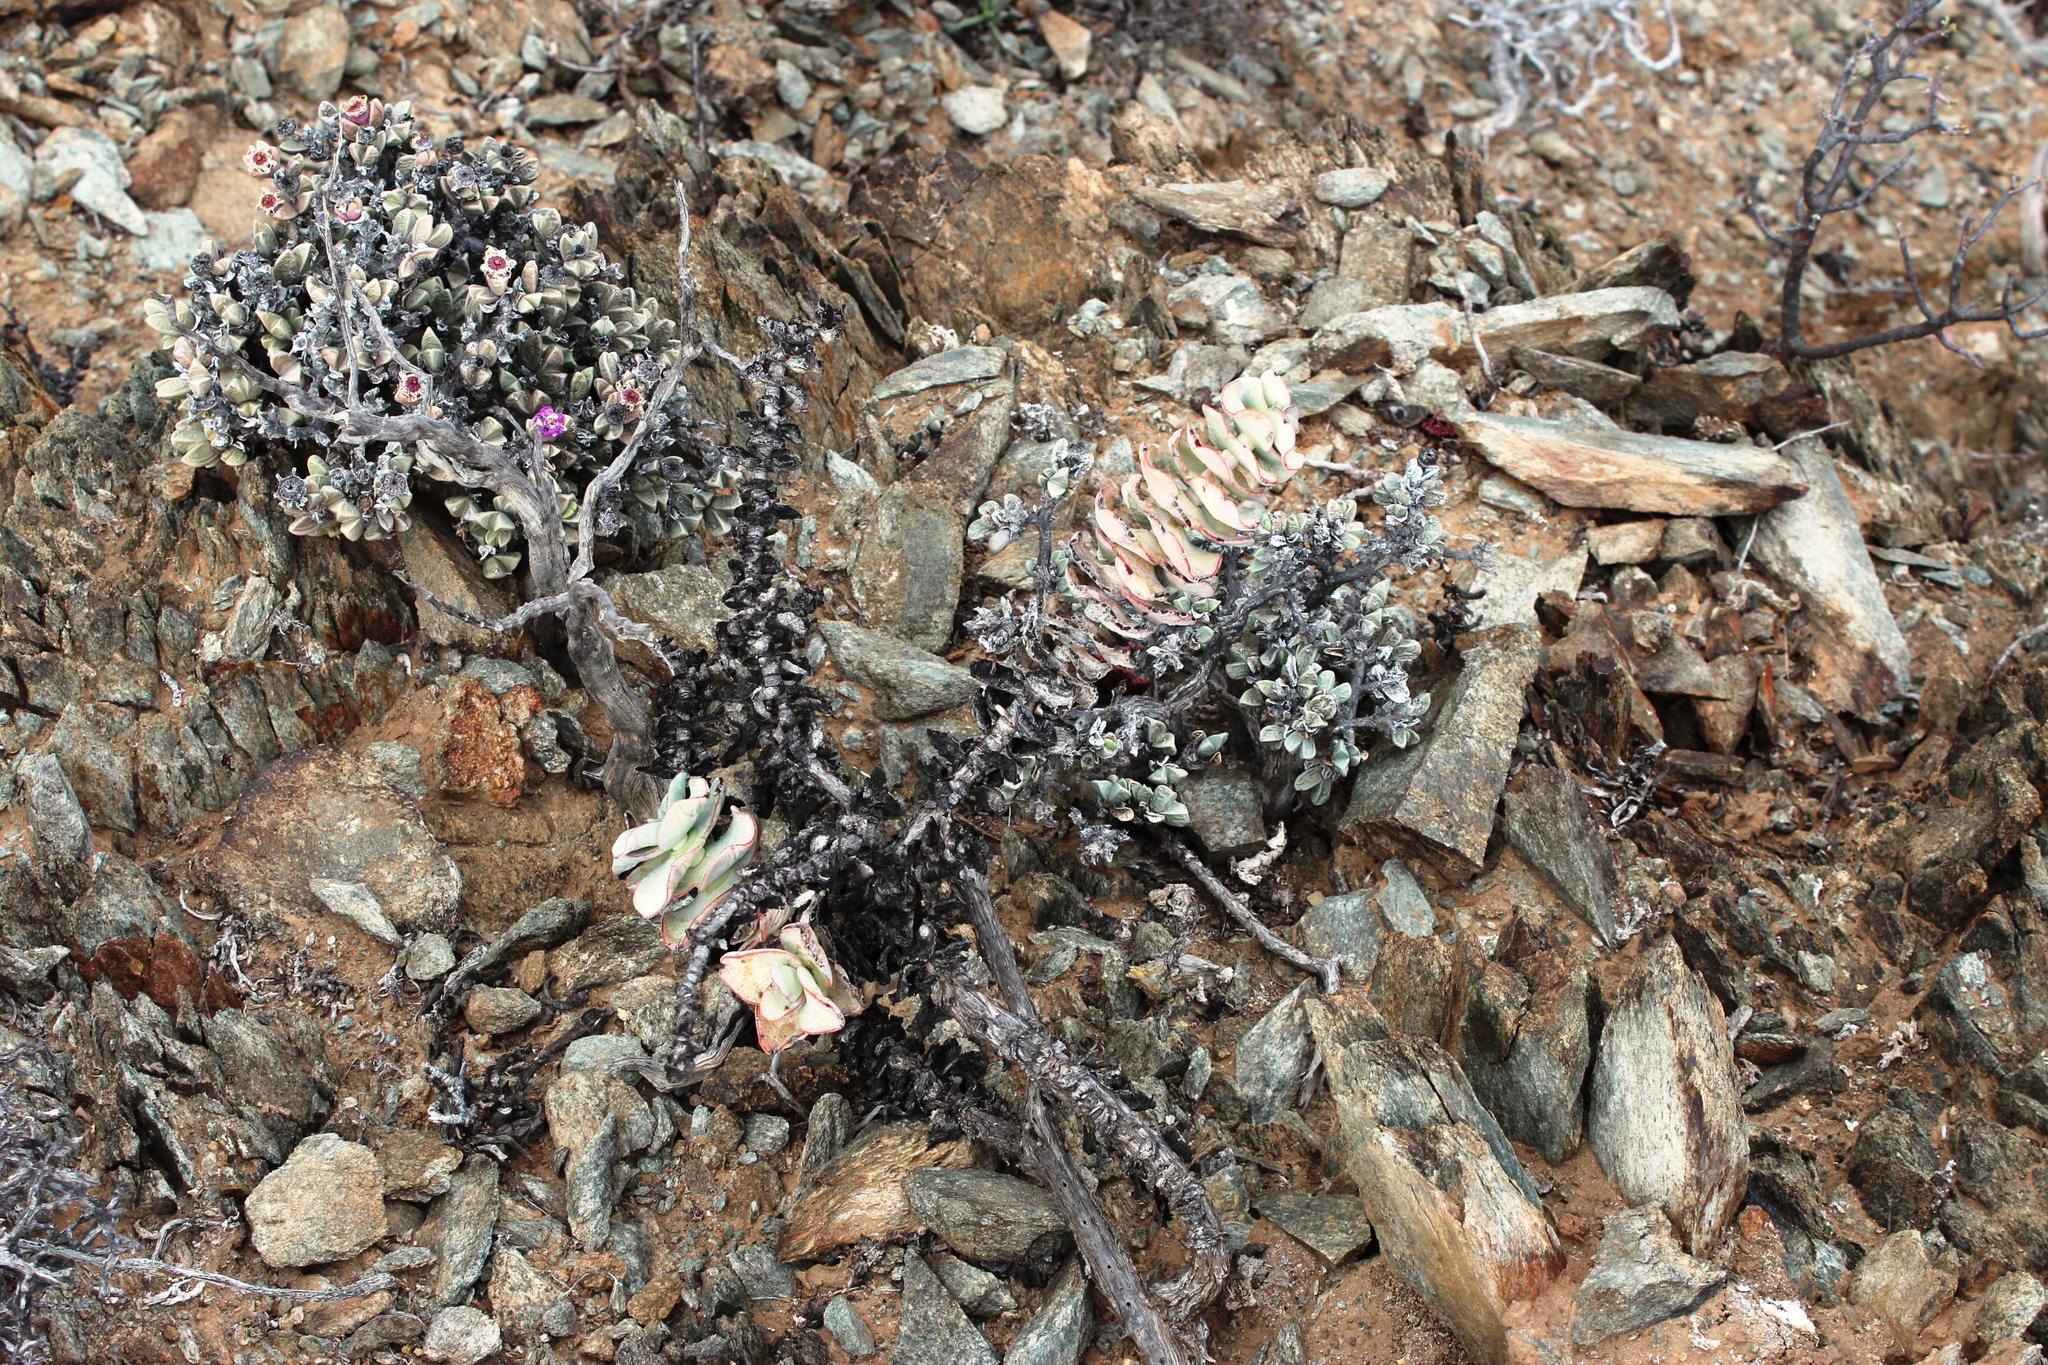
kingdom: Plantae
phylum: Tracheophyta
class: Magnoliopsida
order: Saxifragales
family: Crassulaceae
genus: Crassula
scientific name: Crassula sladenii
